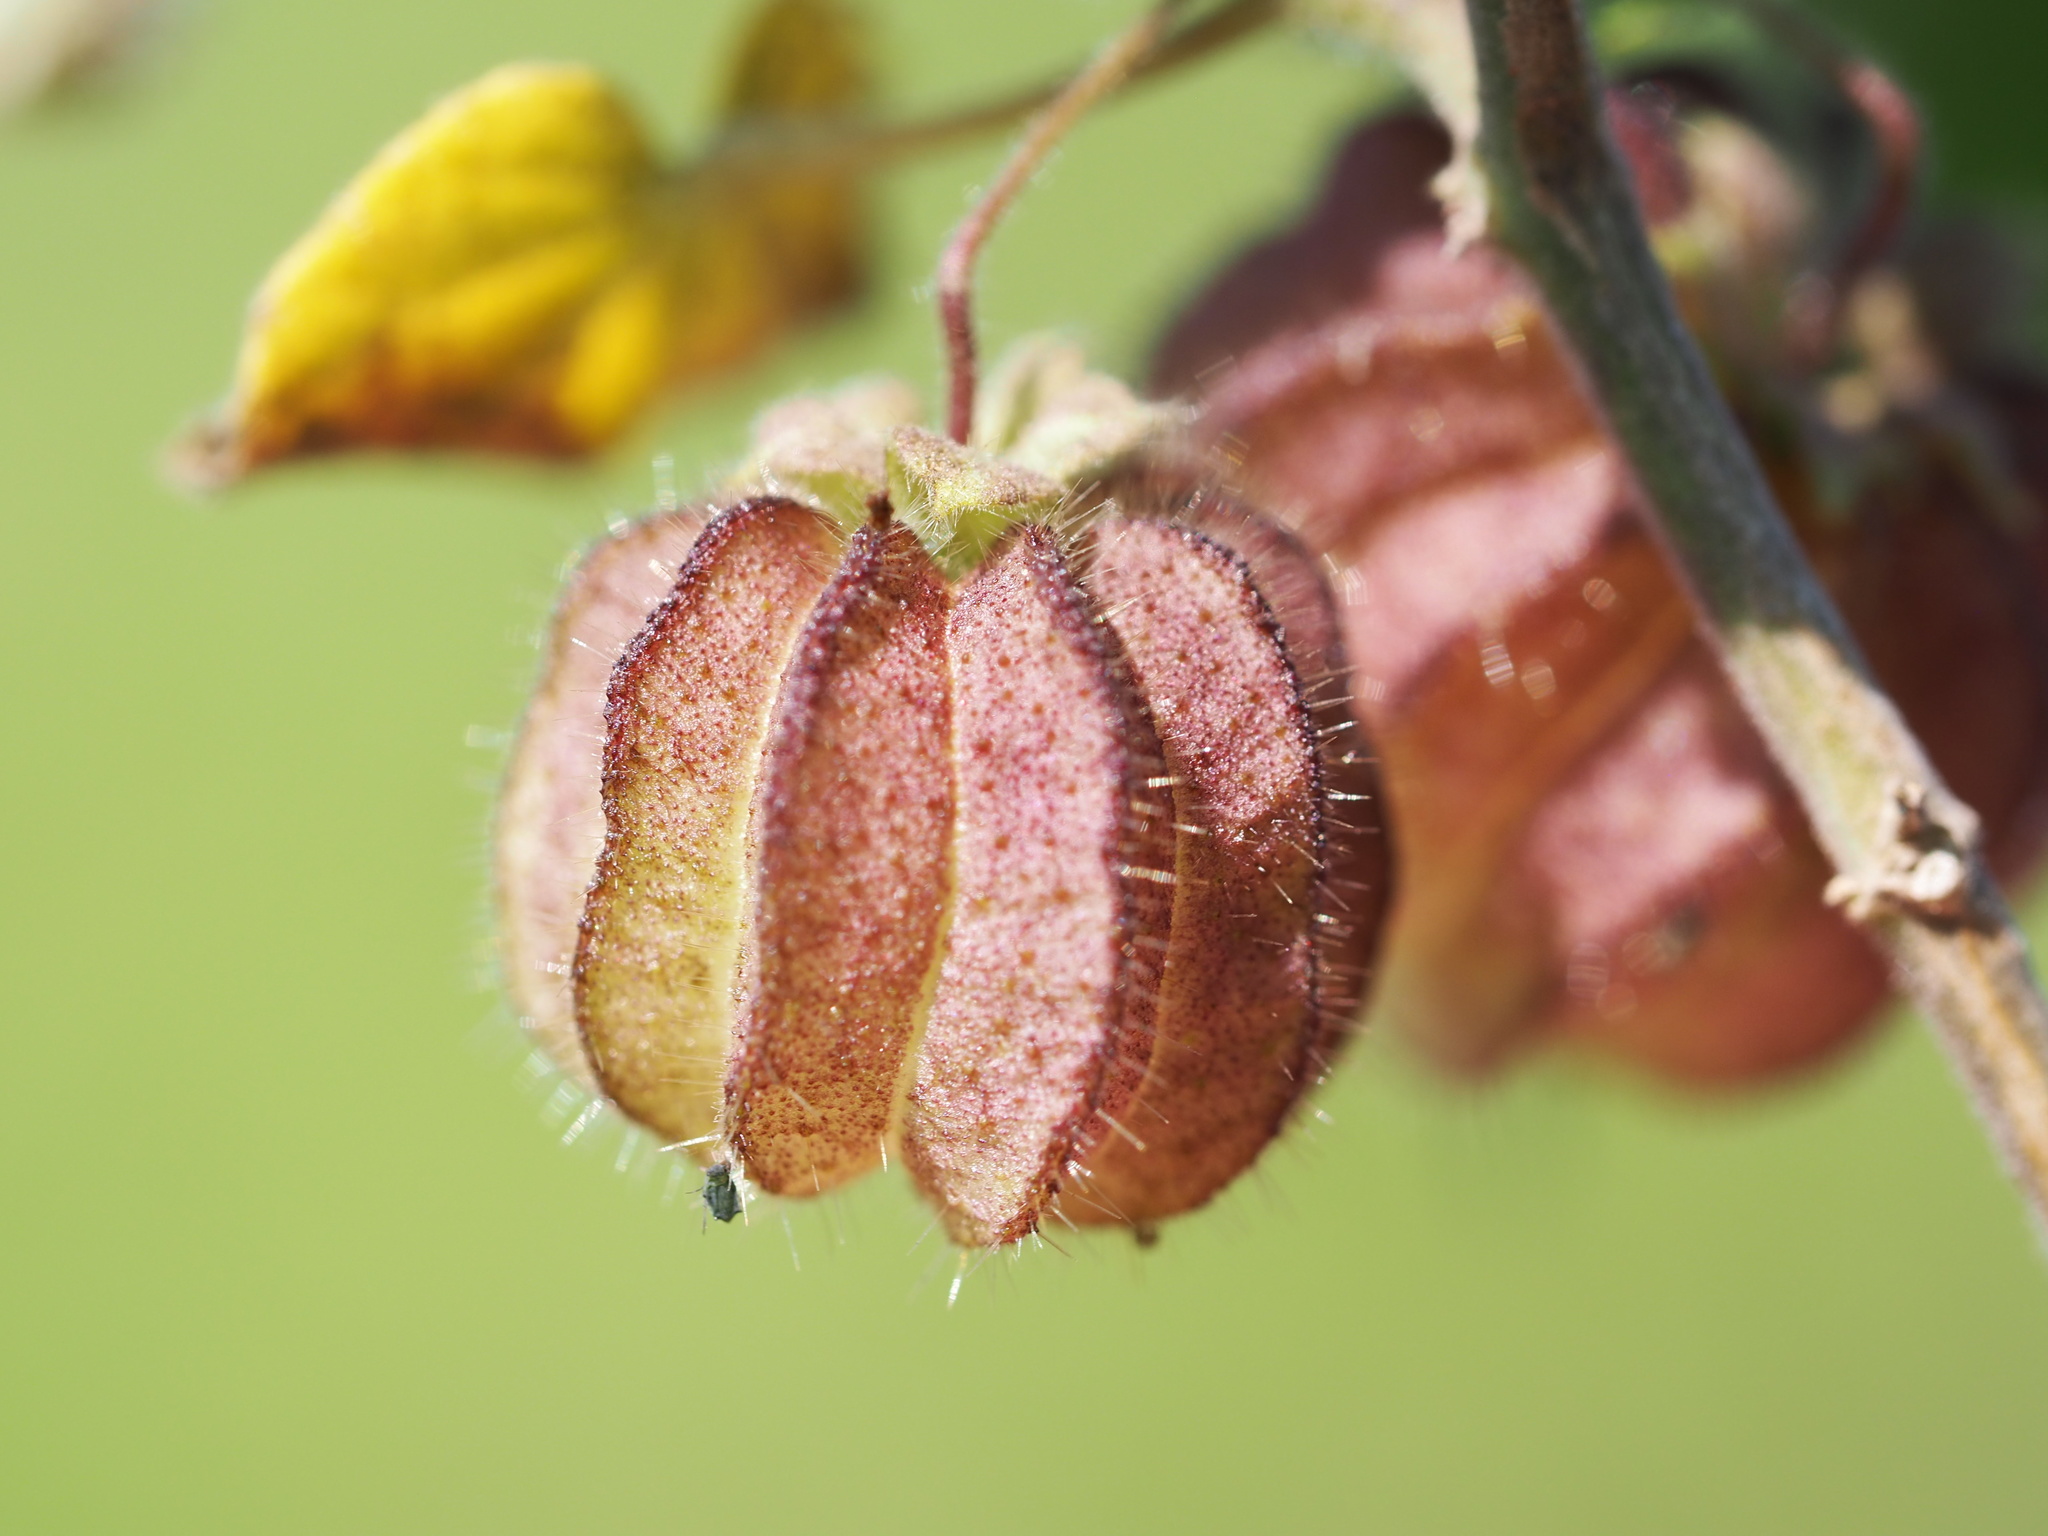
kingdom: Plantae
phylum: Tracheophyta
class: Magnoliopsida
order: Malvales
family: Malvaceae
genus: Herissantia
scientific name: Herissantia crispa
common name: Bladdermallow
